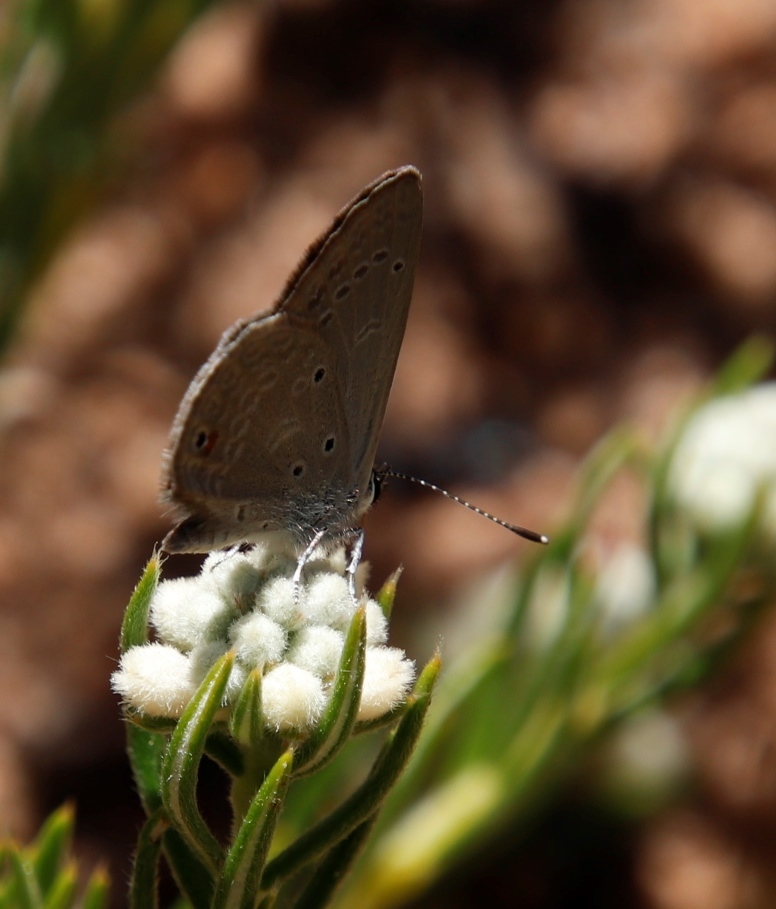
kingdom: Animalia
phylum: Arthropoda
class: Insecta
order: Lepidoptera
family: Lycaenidae
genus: Eicochrysops
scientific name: Eicochrysops messapus
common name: Cupreous blue
